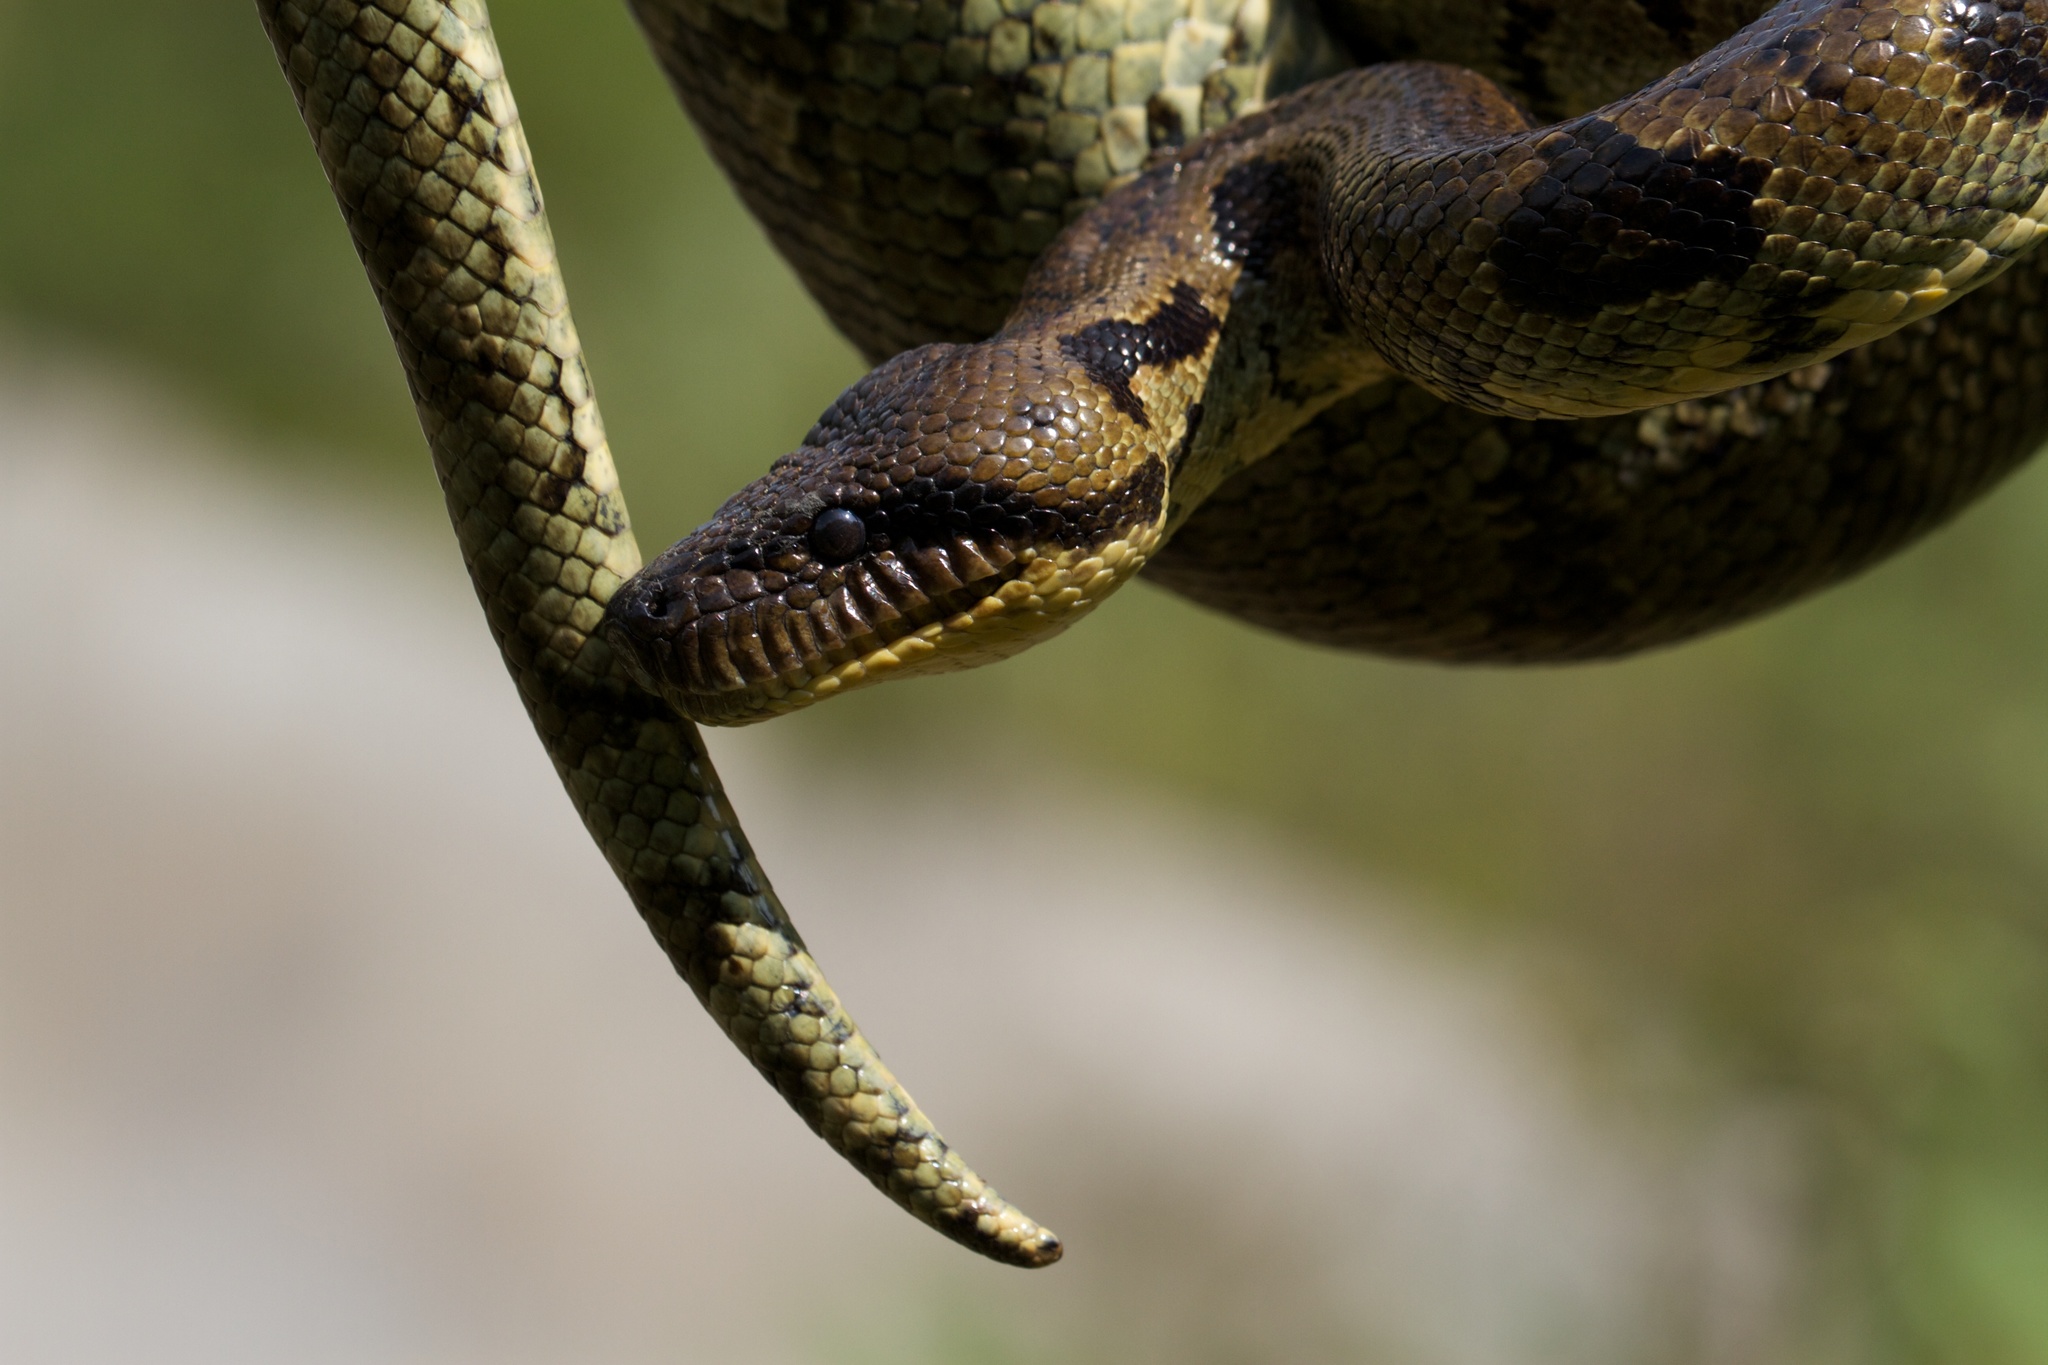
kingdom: Animalia
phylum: Chordata
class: Squamata
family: Boidae
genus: Sanzinia
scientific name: Sanzinia madagascariensis
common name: Madagascar tree boa
